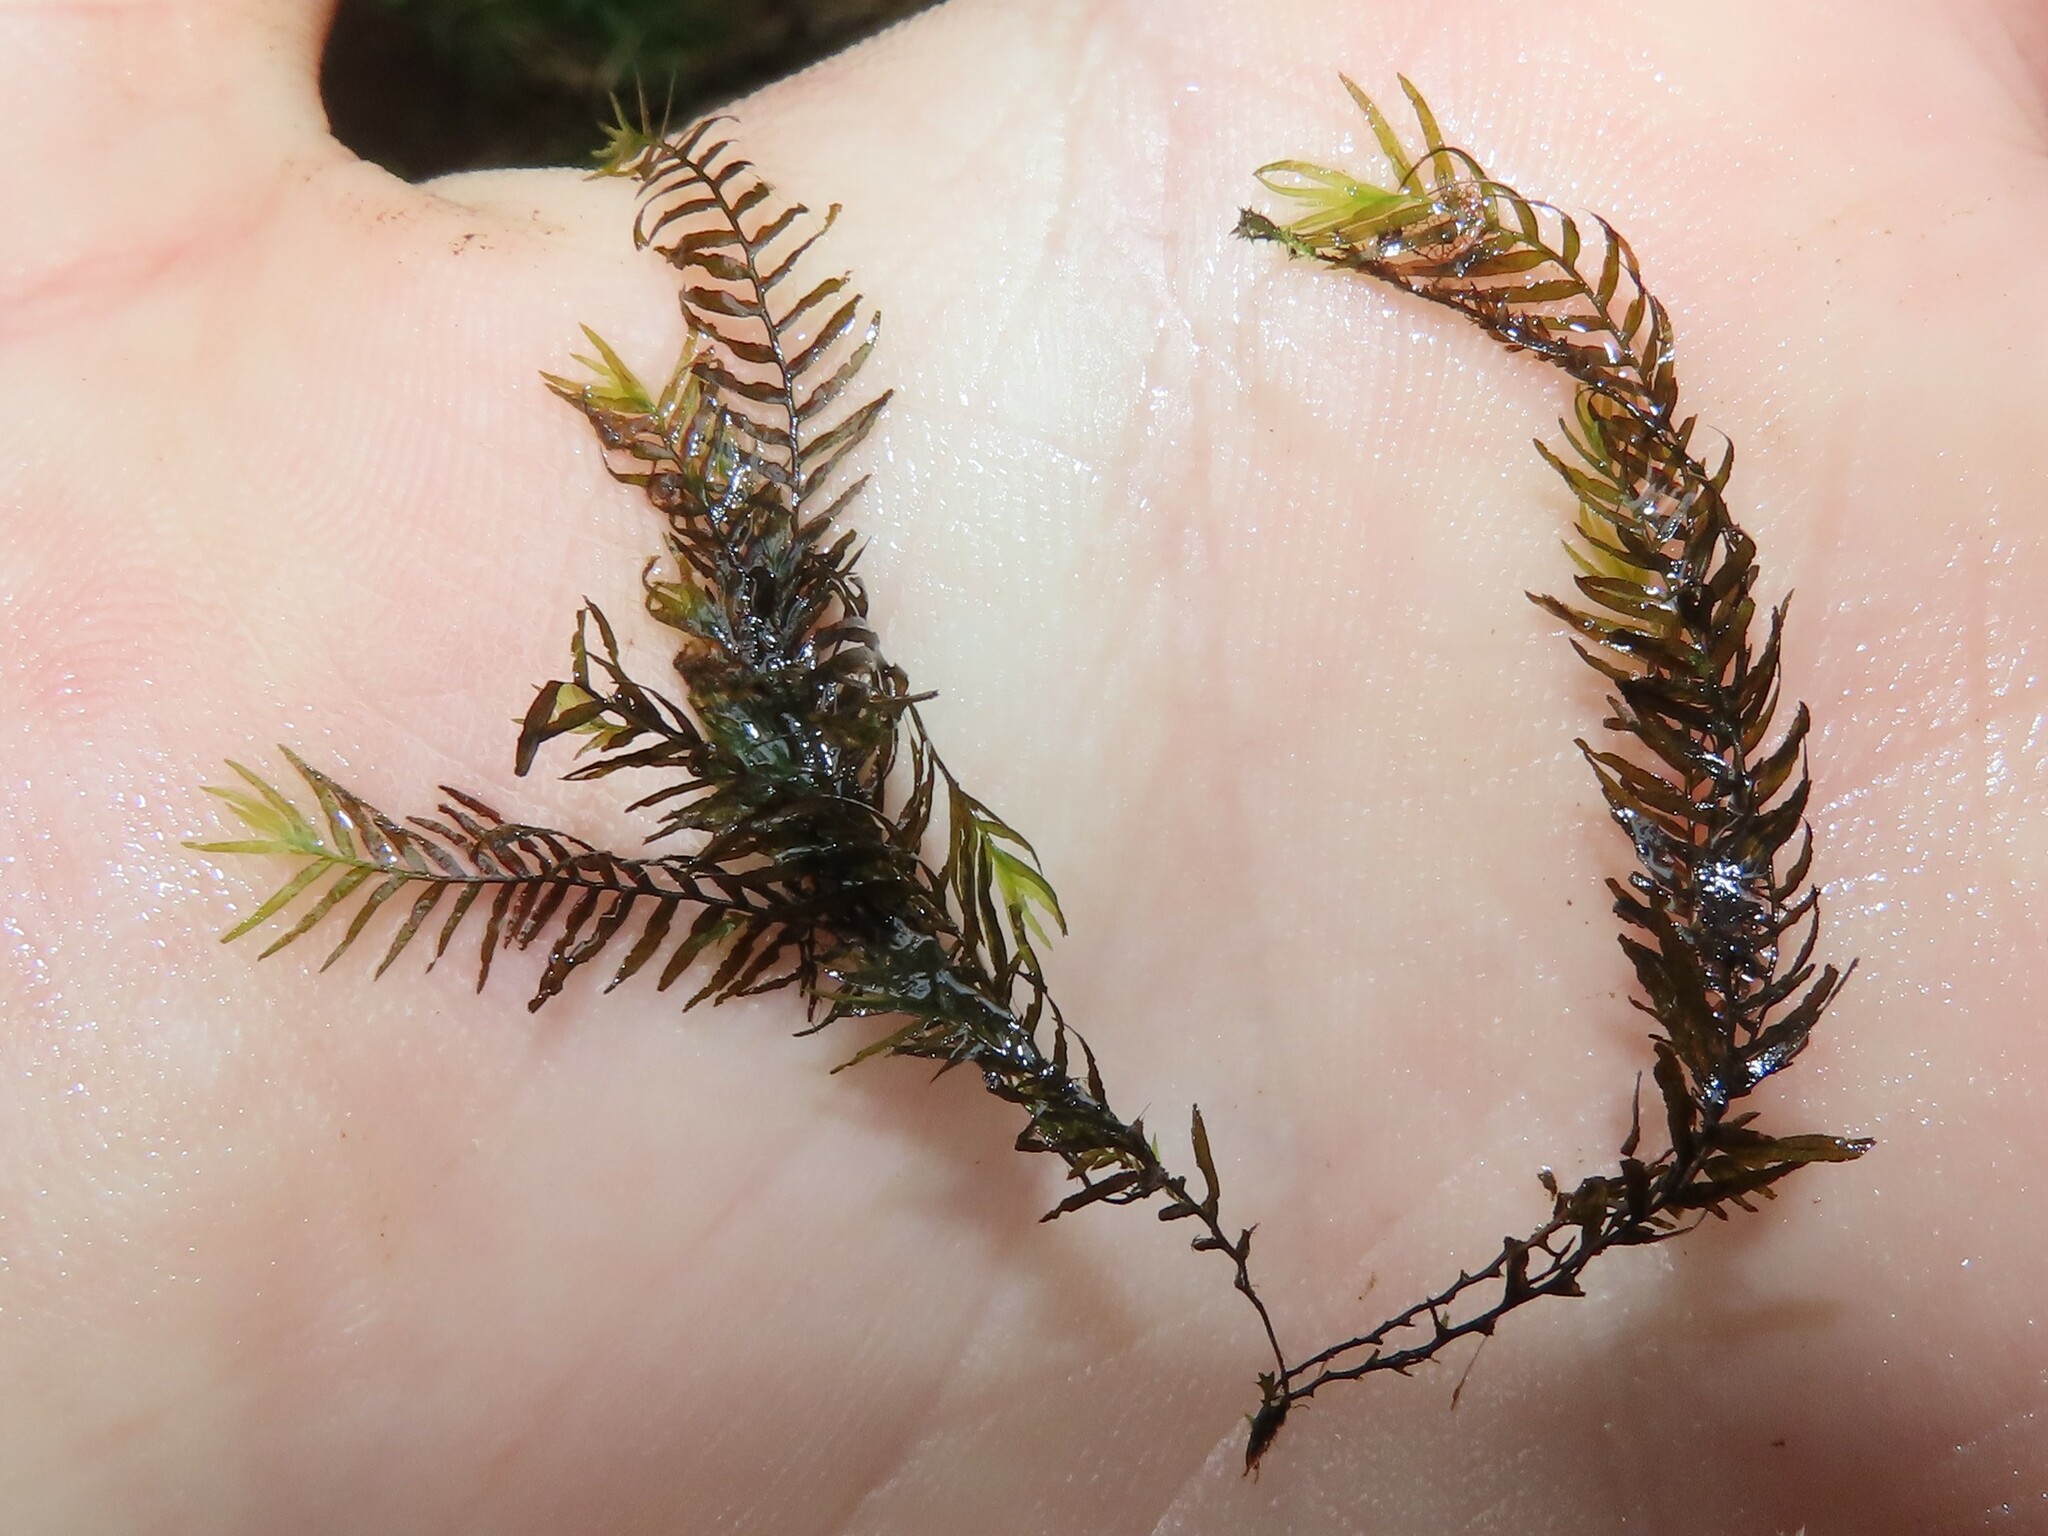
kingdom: Plantae
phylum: Bryophyta
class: Bryopsida
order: Dicranales
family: Fissidentaceae
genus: Fissidens
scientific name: Fissidens fontanus
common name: Fountain pocket-moss
